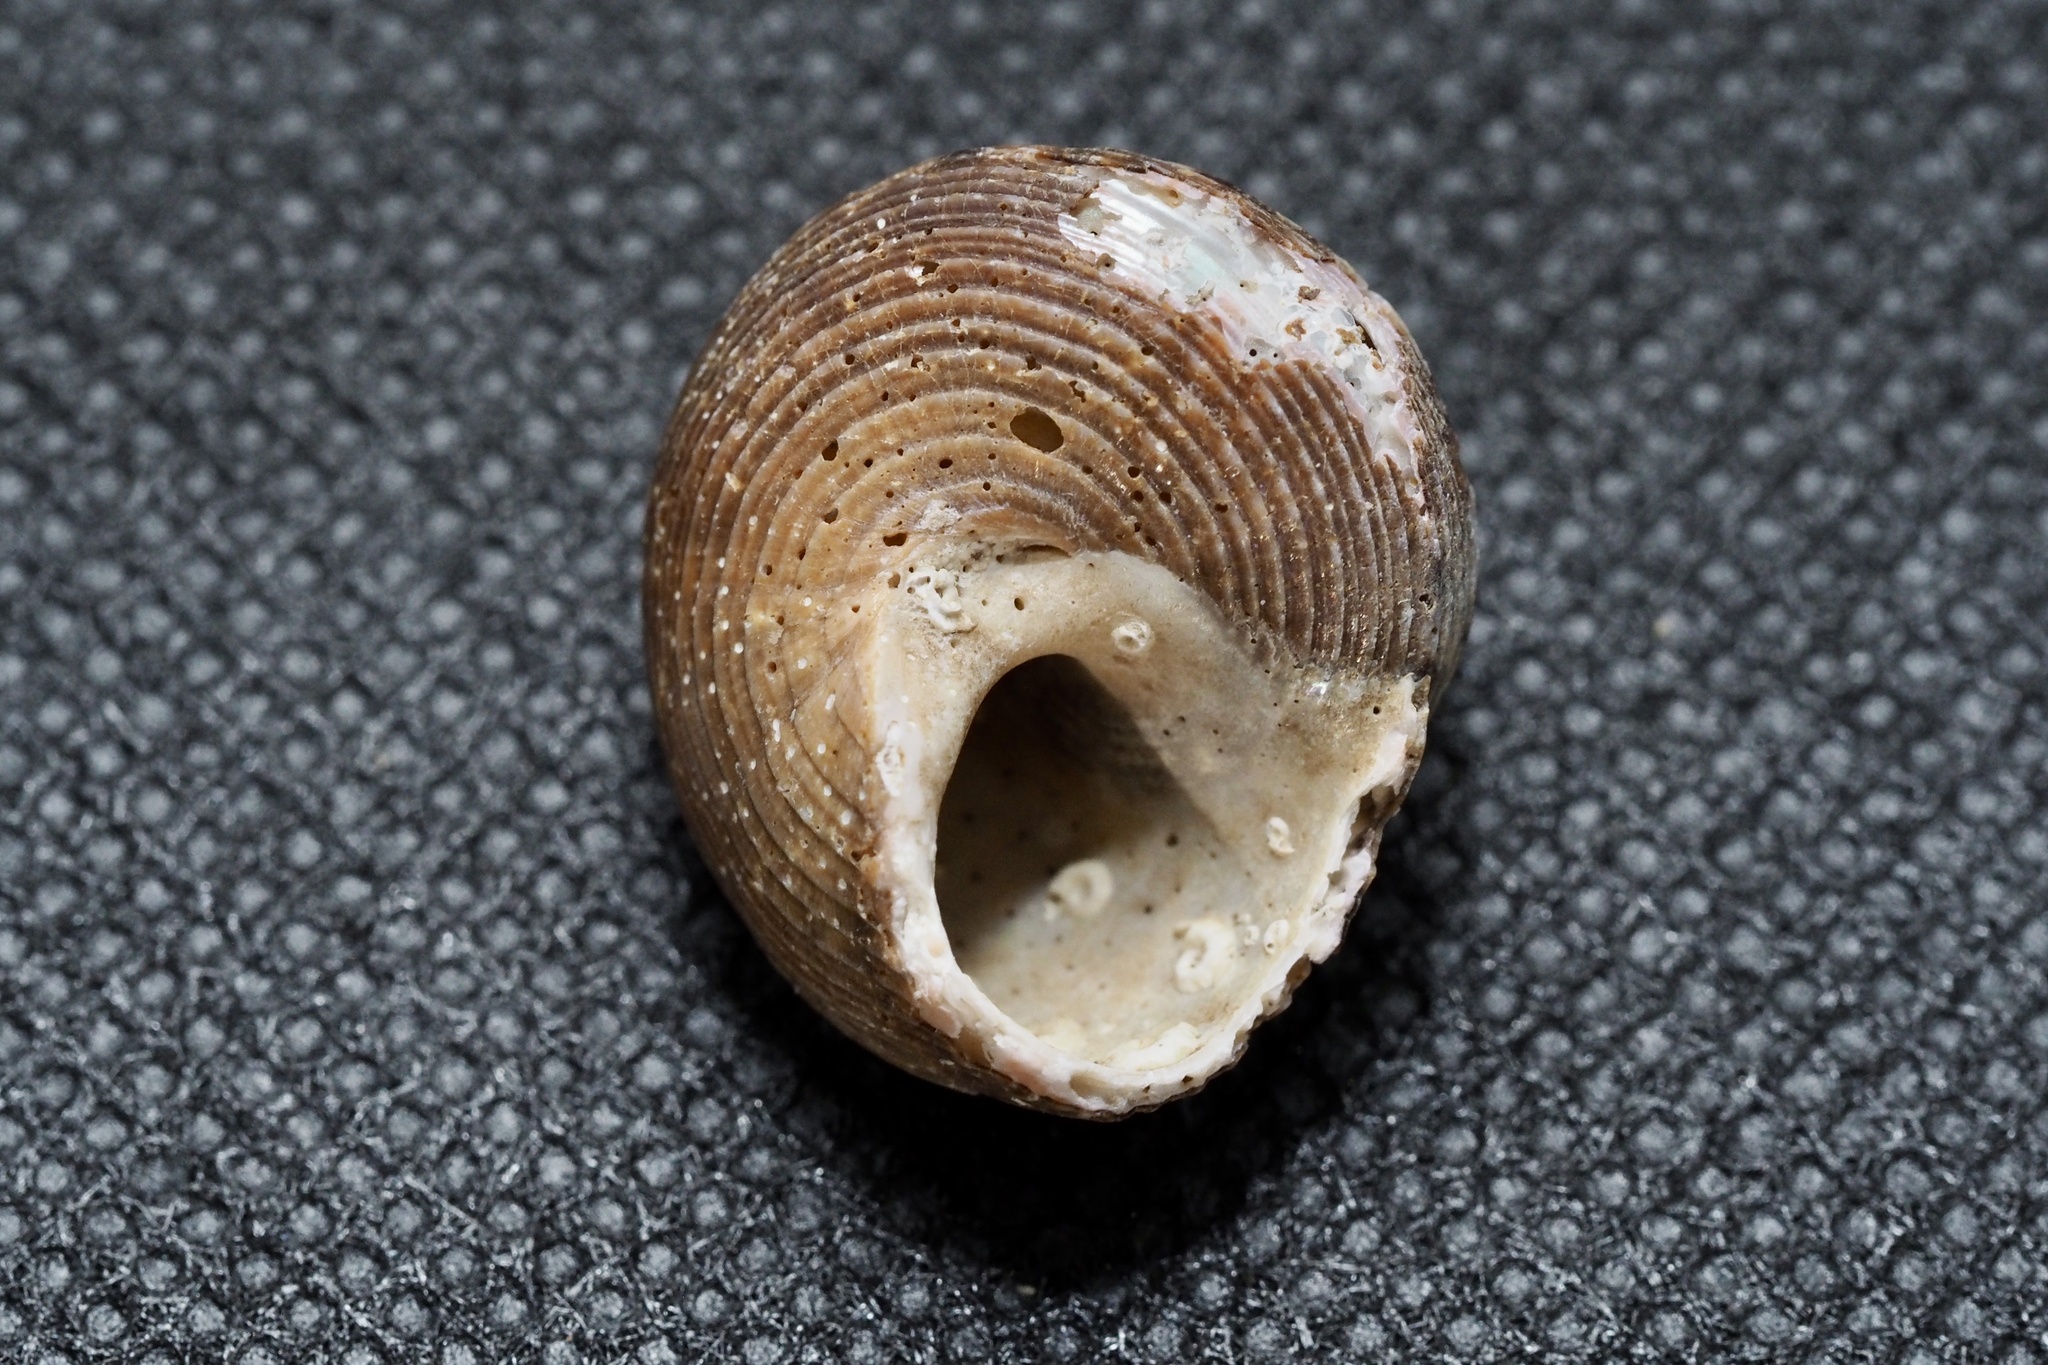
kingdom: Animalia
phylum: Mollusca
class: Gastropoda
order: Trochida
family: Calliostomatidae
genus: Tristichotrochus
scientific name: Tristichotrochus unicus
